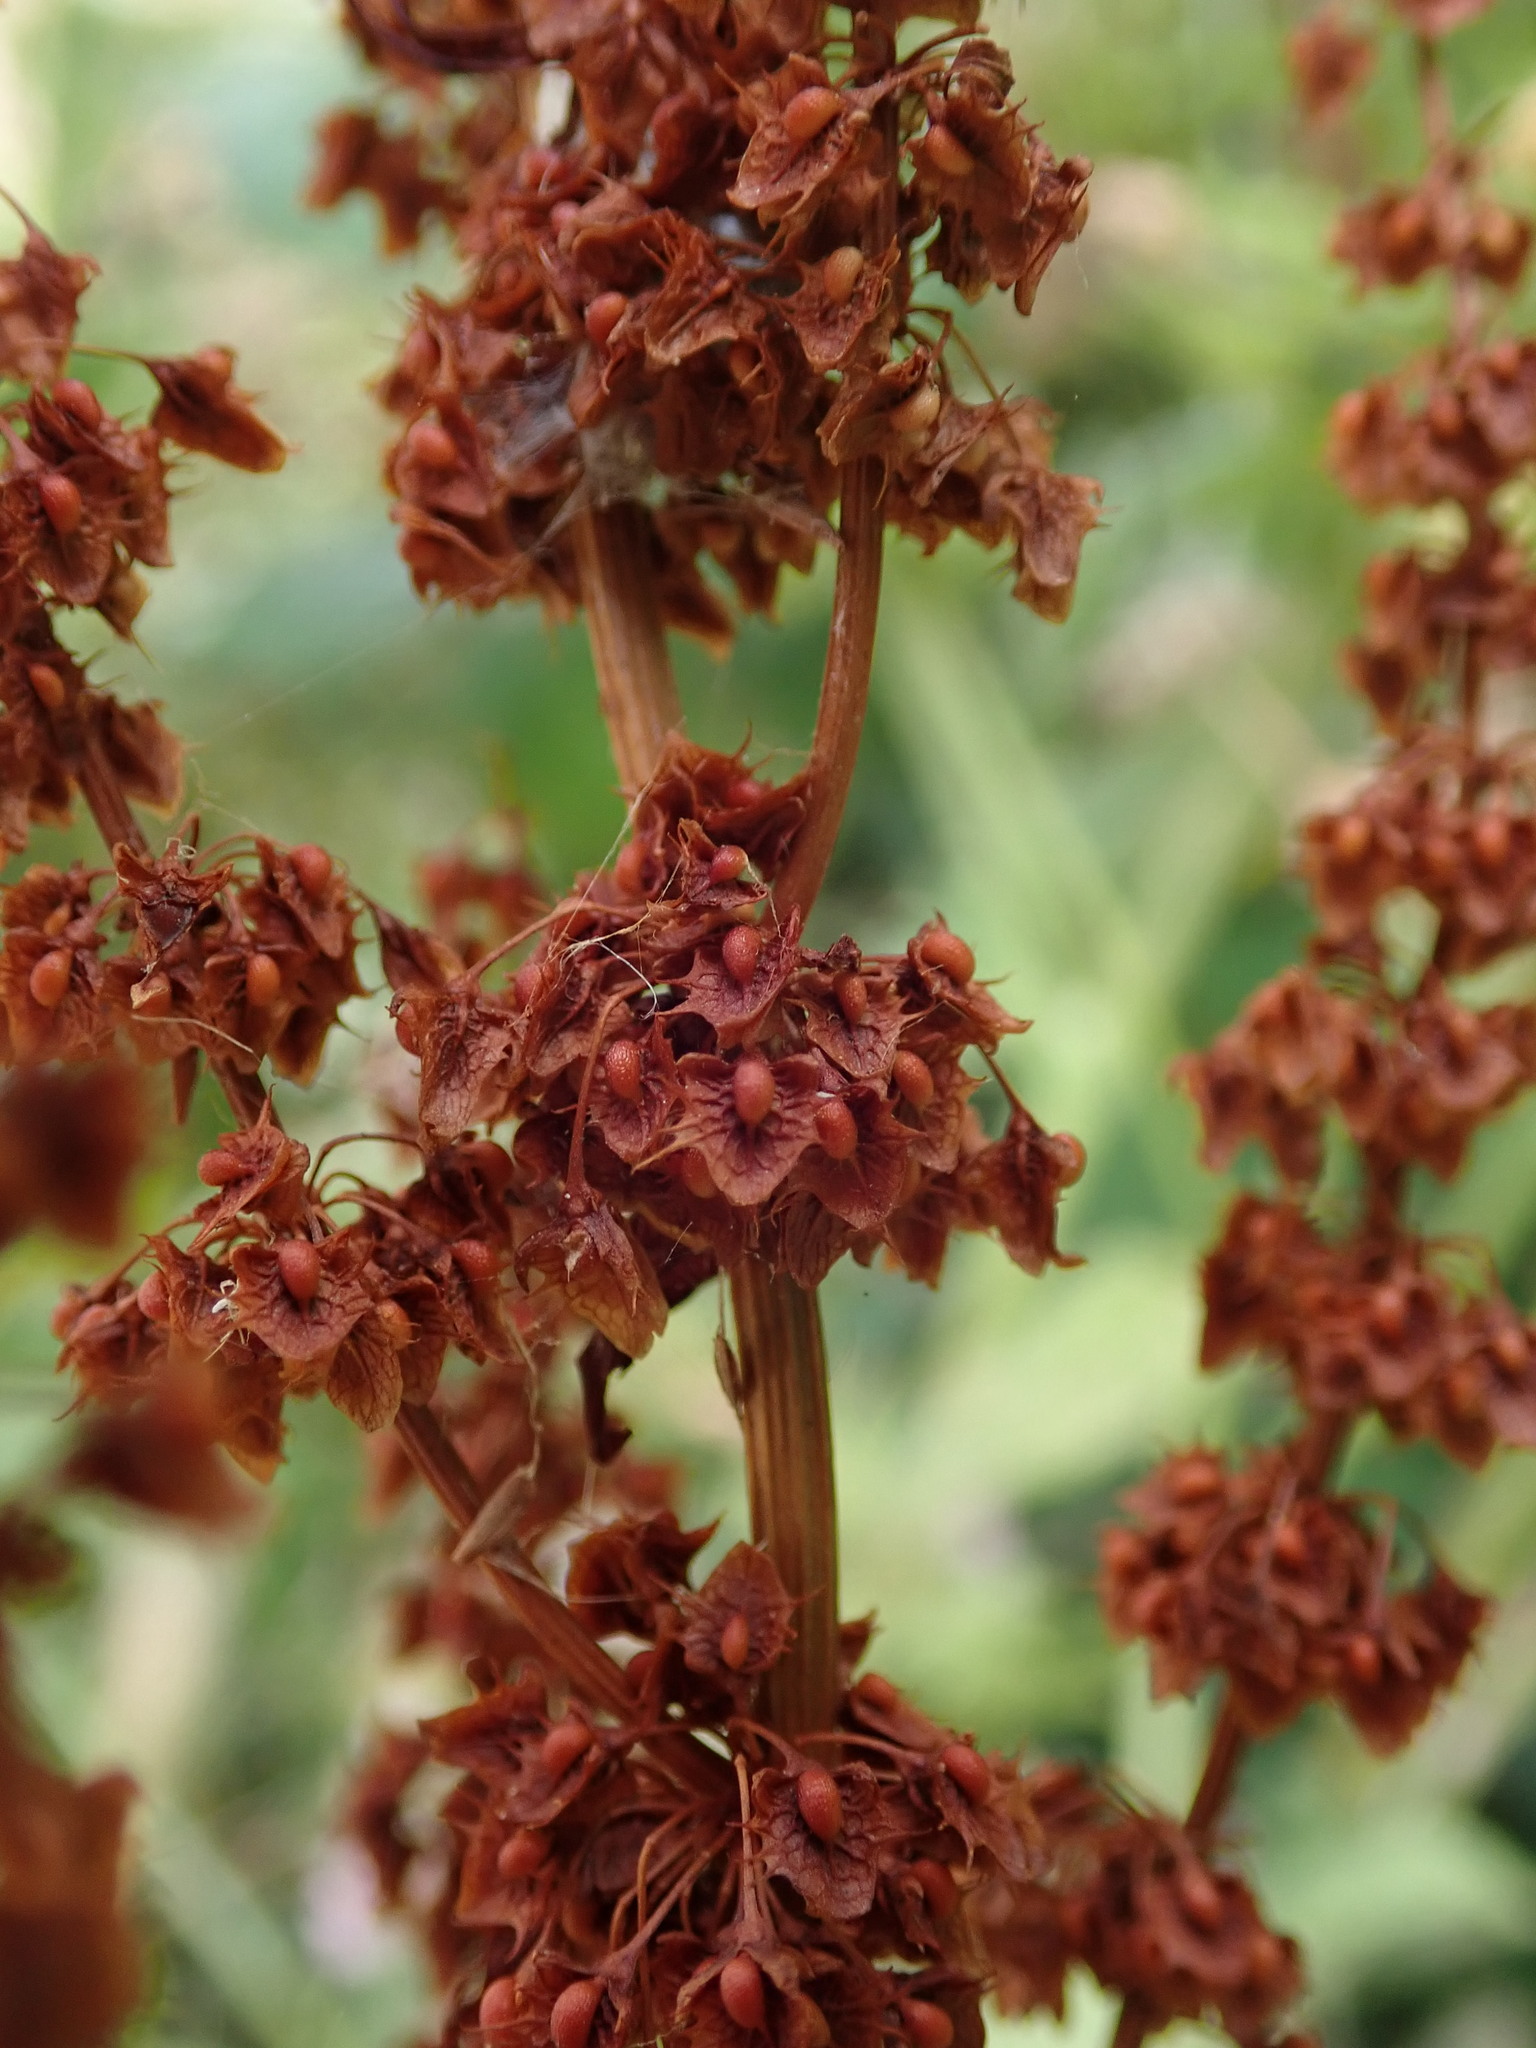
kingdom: Plantae
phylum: Tracheophyta
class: Magnoliopsida
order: Caryophyllales
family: Polygonaceae
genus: Rumex
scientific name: Rumex obtusifolius
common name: Bitter dock
